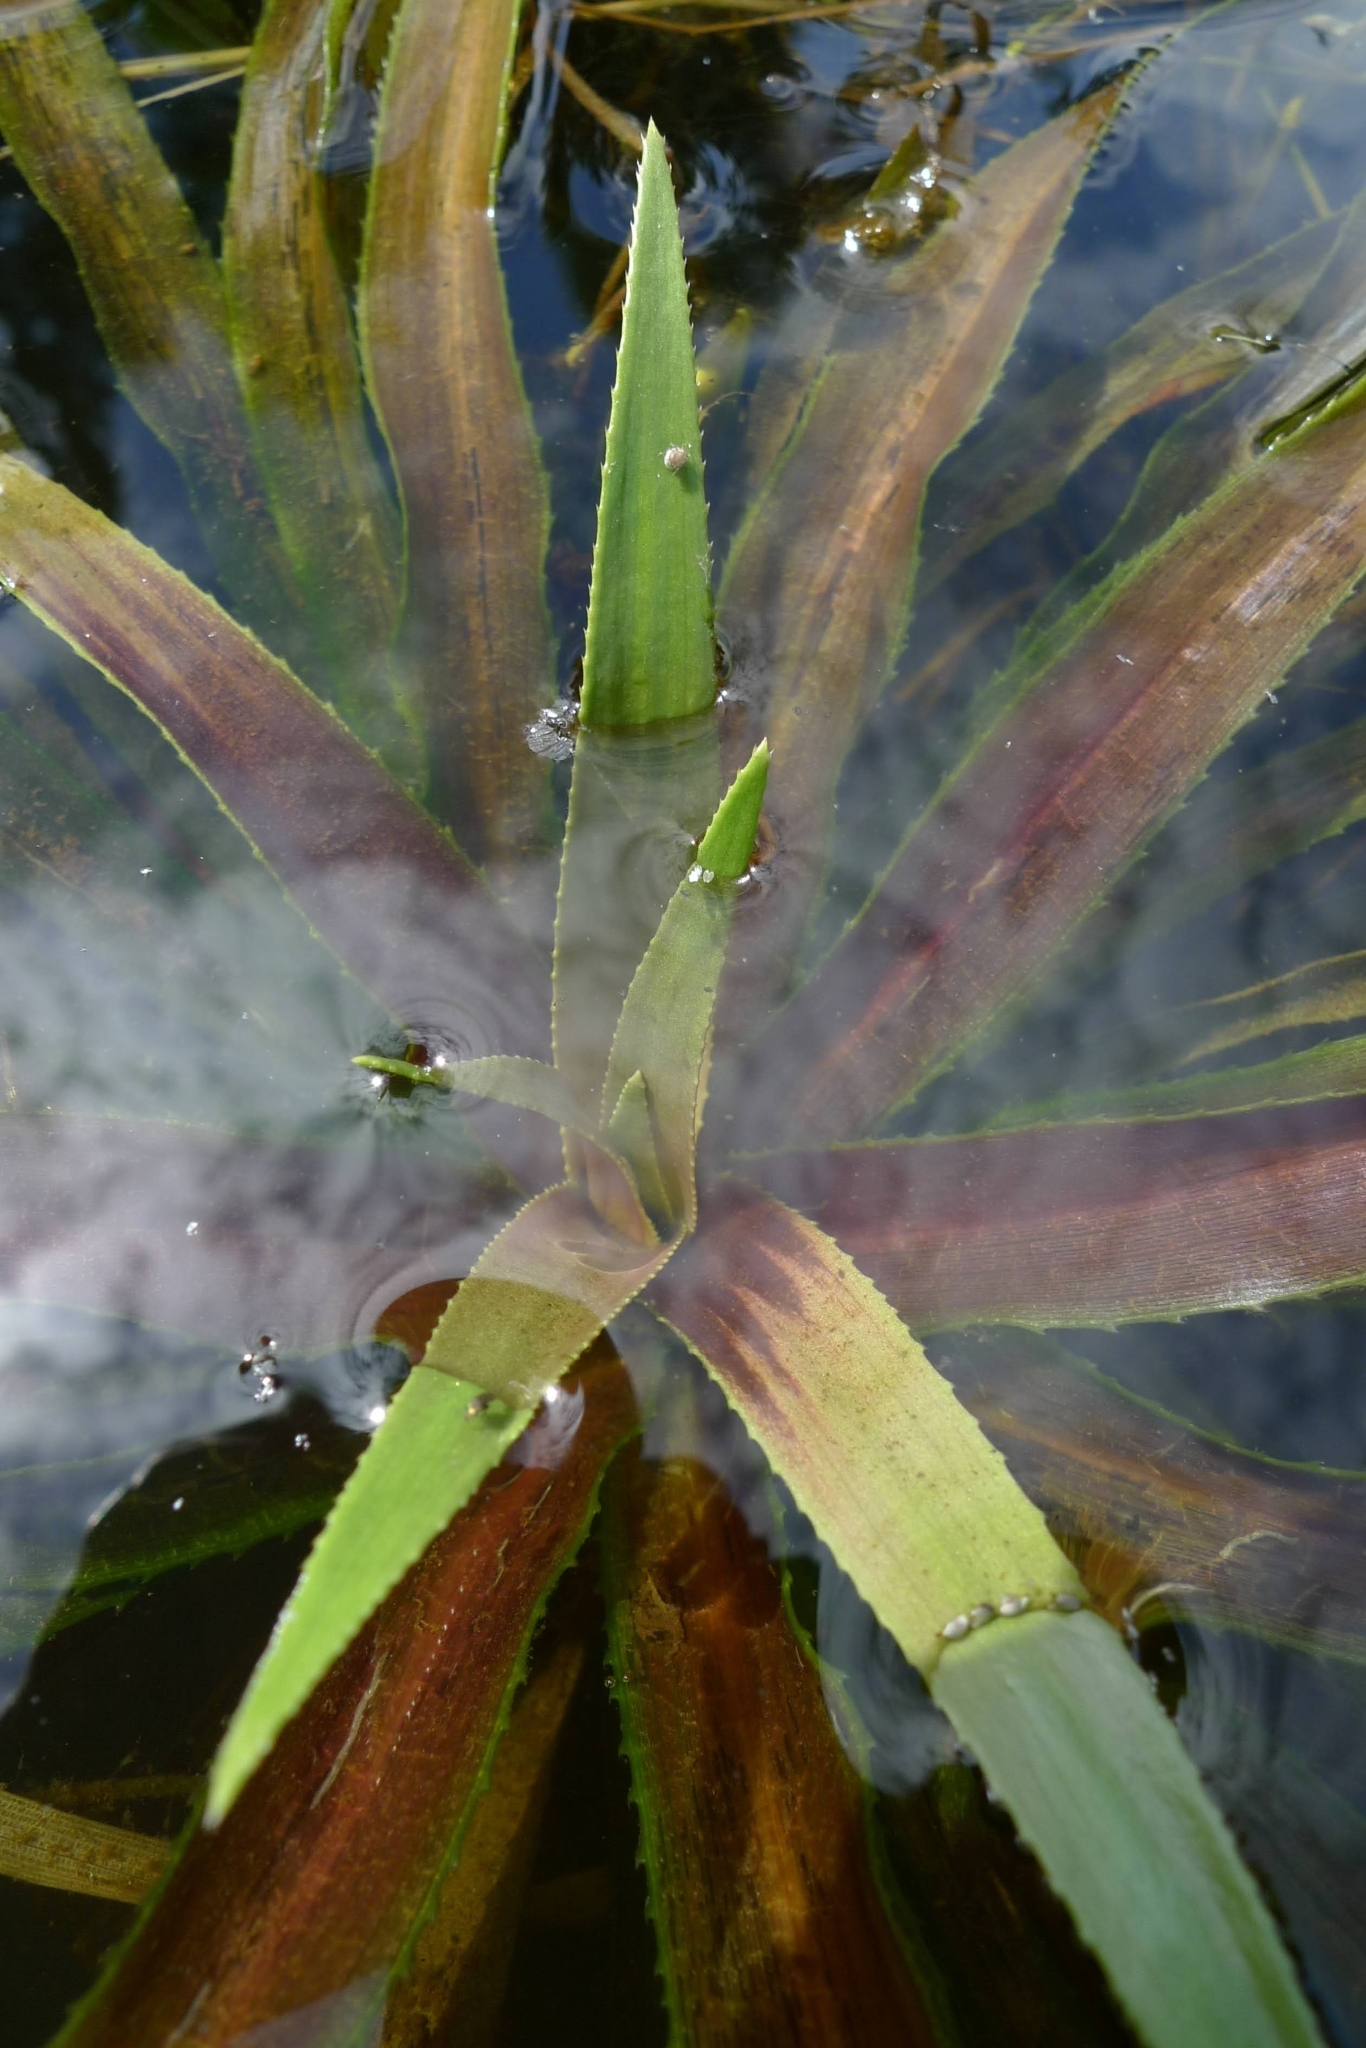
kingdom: Plantae
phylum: Tracheophyta
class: Liliopsida
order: Alismatales
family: Hydrocharitaceae
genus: Stratiotes
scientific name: Stratiotes aloides
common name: Water-soldier
